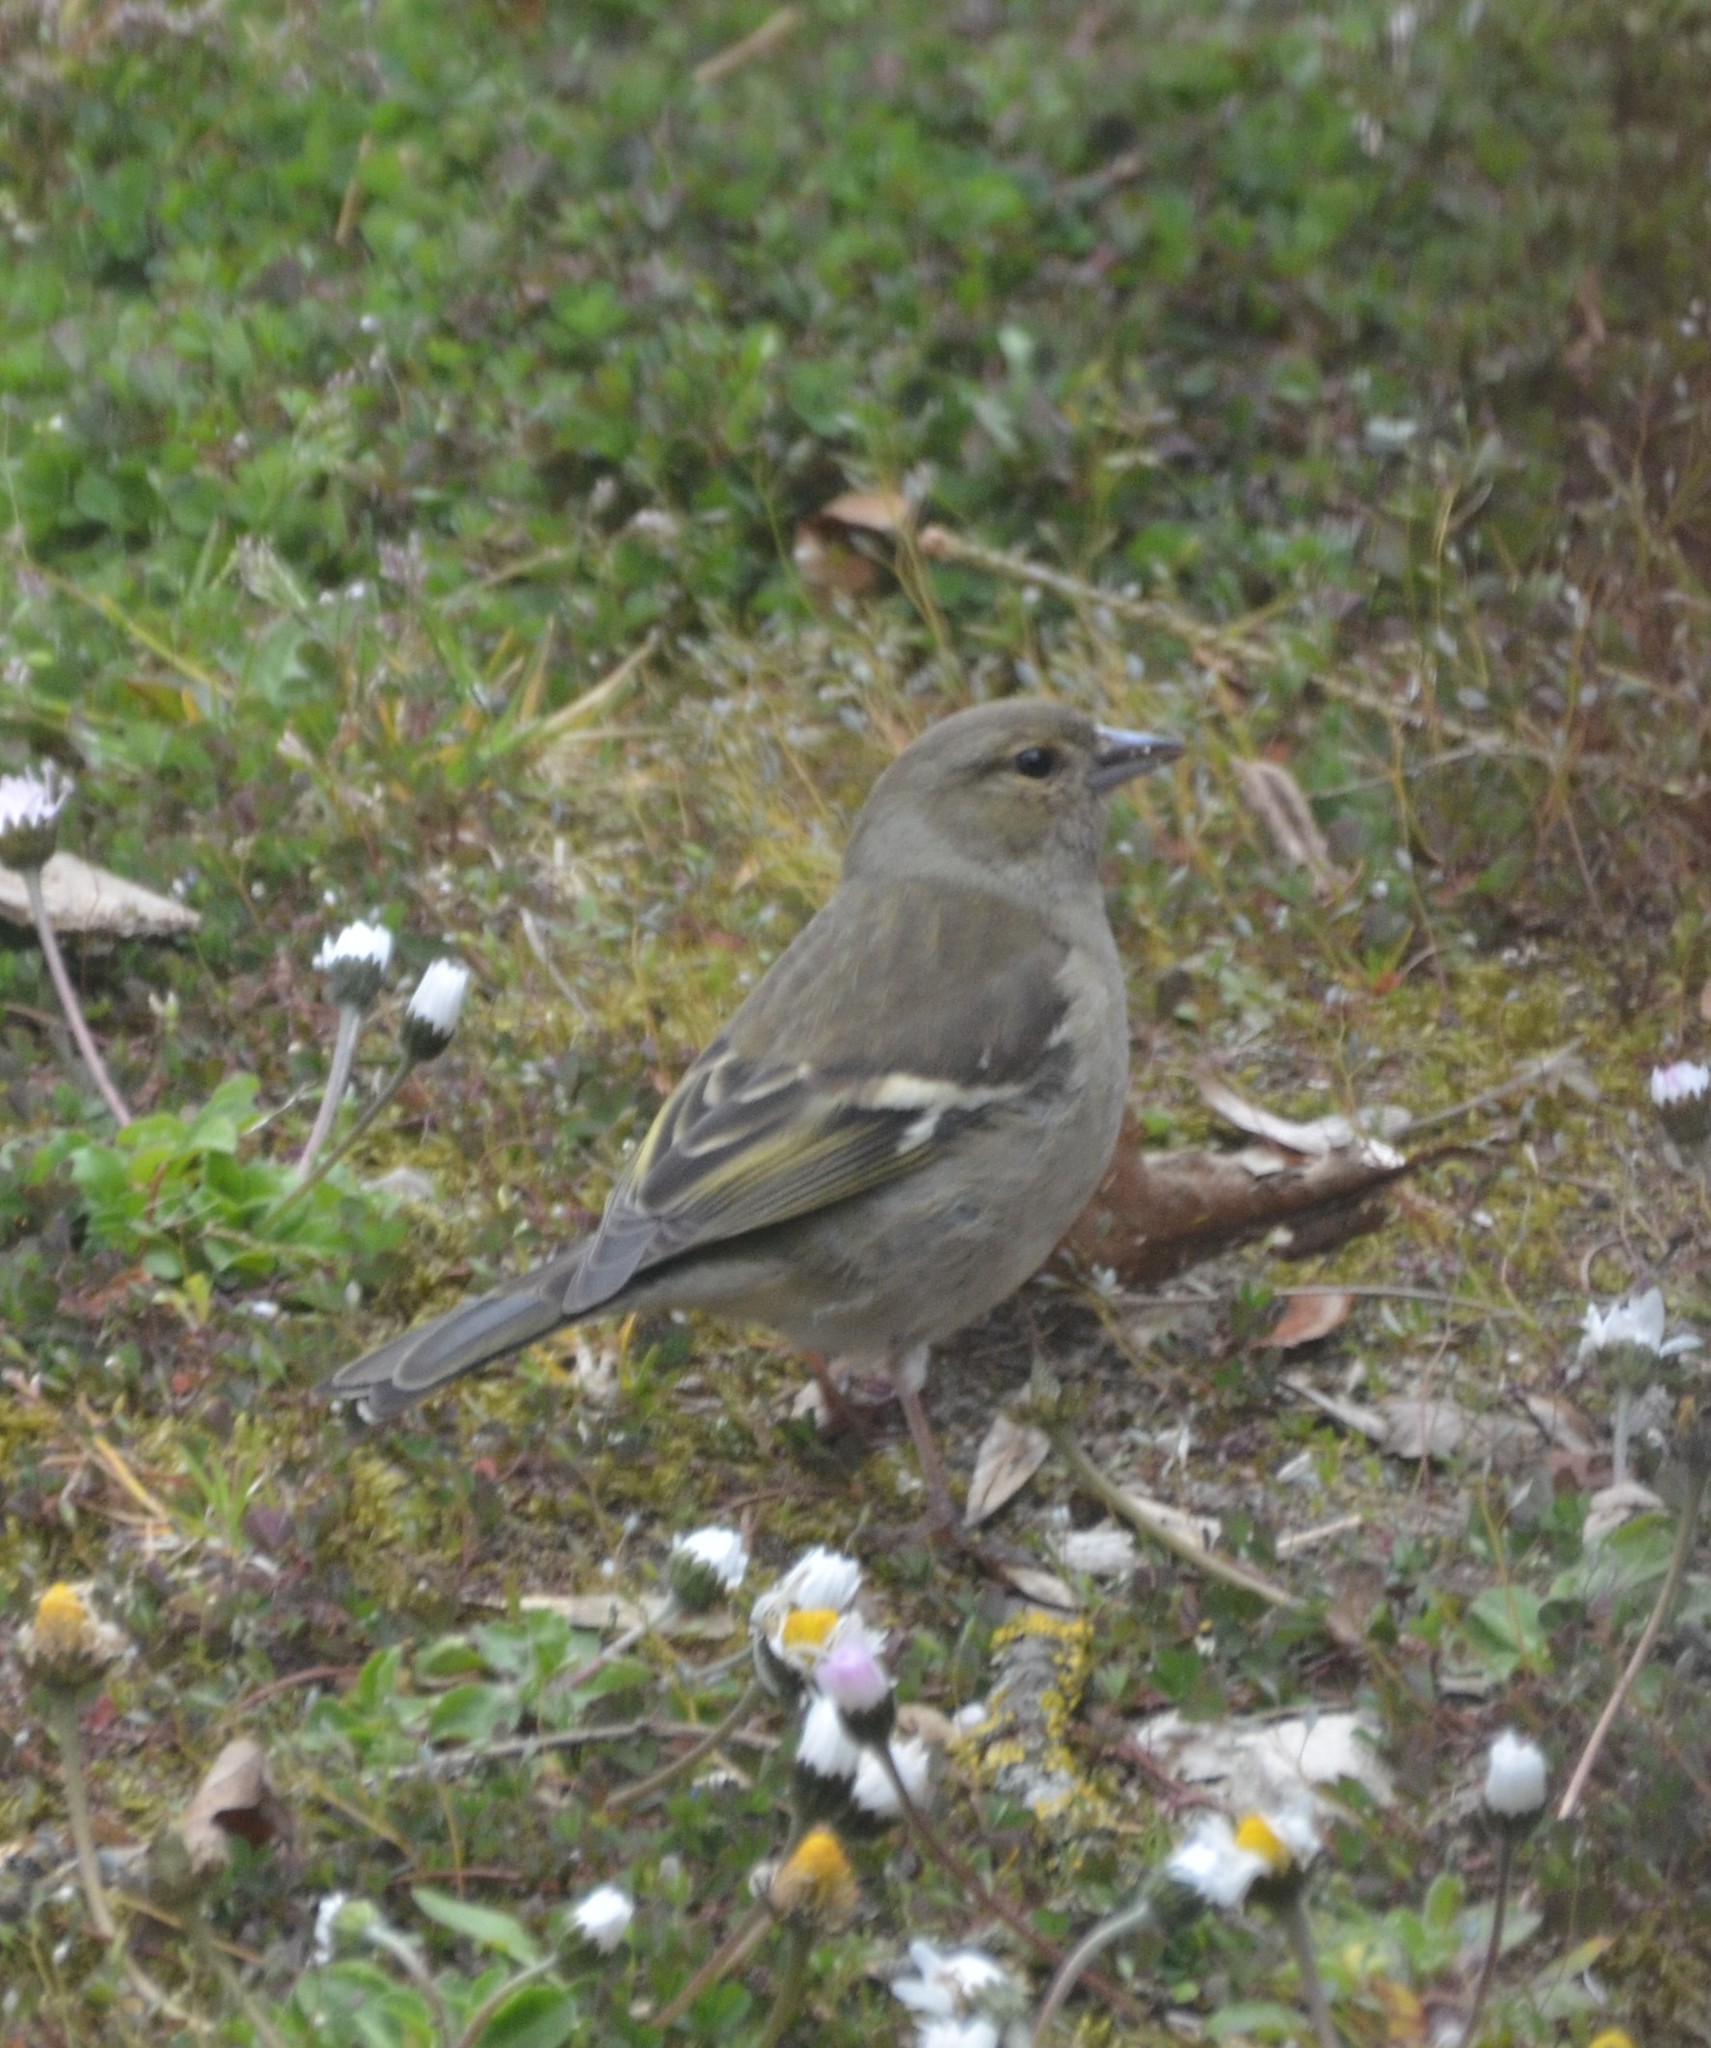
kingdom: Animalia
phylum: Chordata
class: Aves
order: Passeriformes
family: Fringillidae
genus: Fringilla
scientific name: Fringilla coelebs
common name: Common chaffinch
